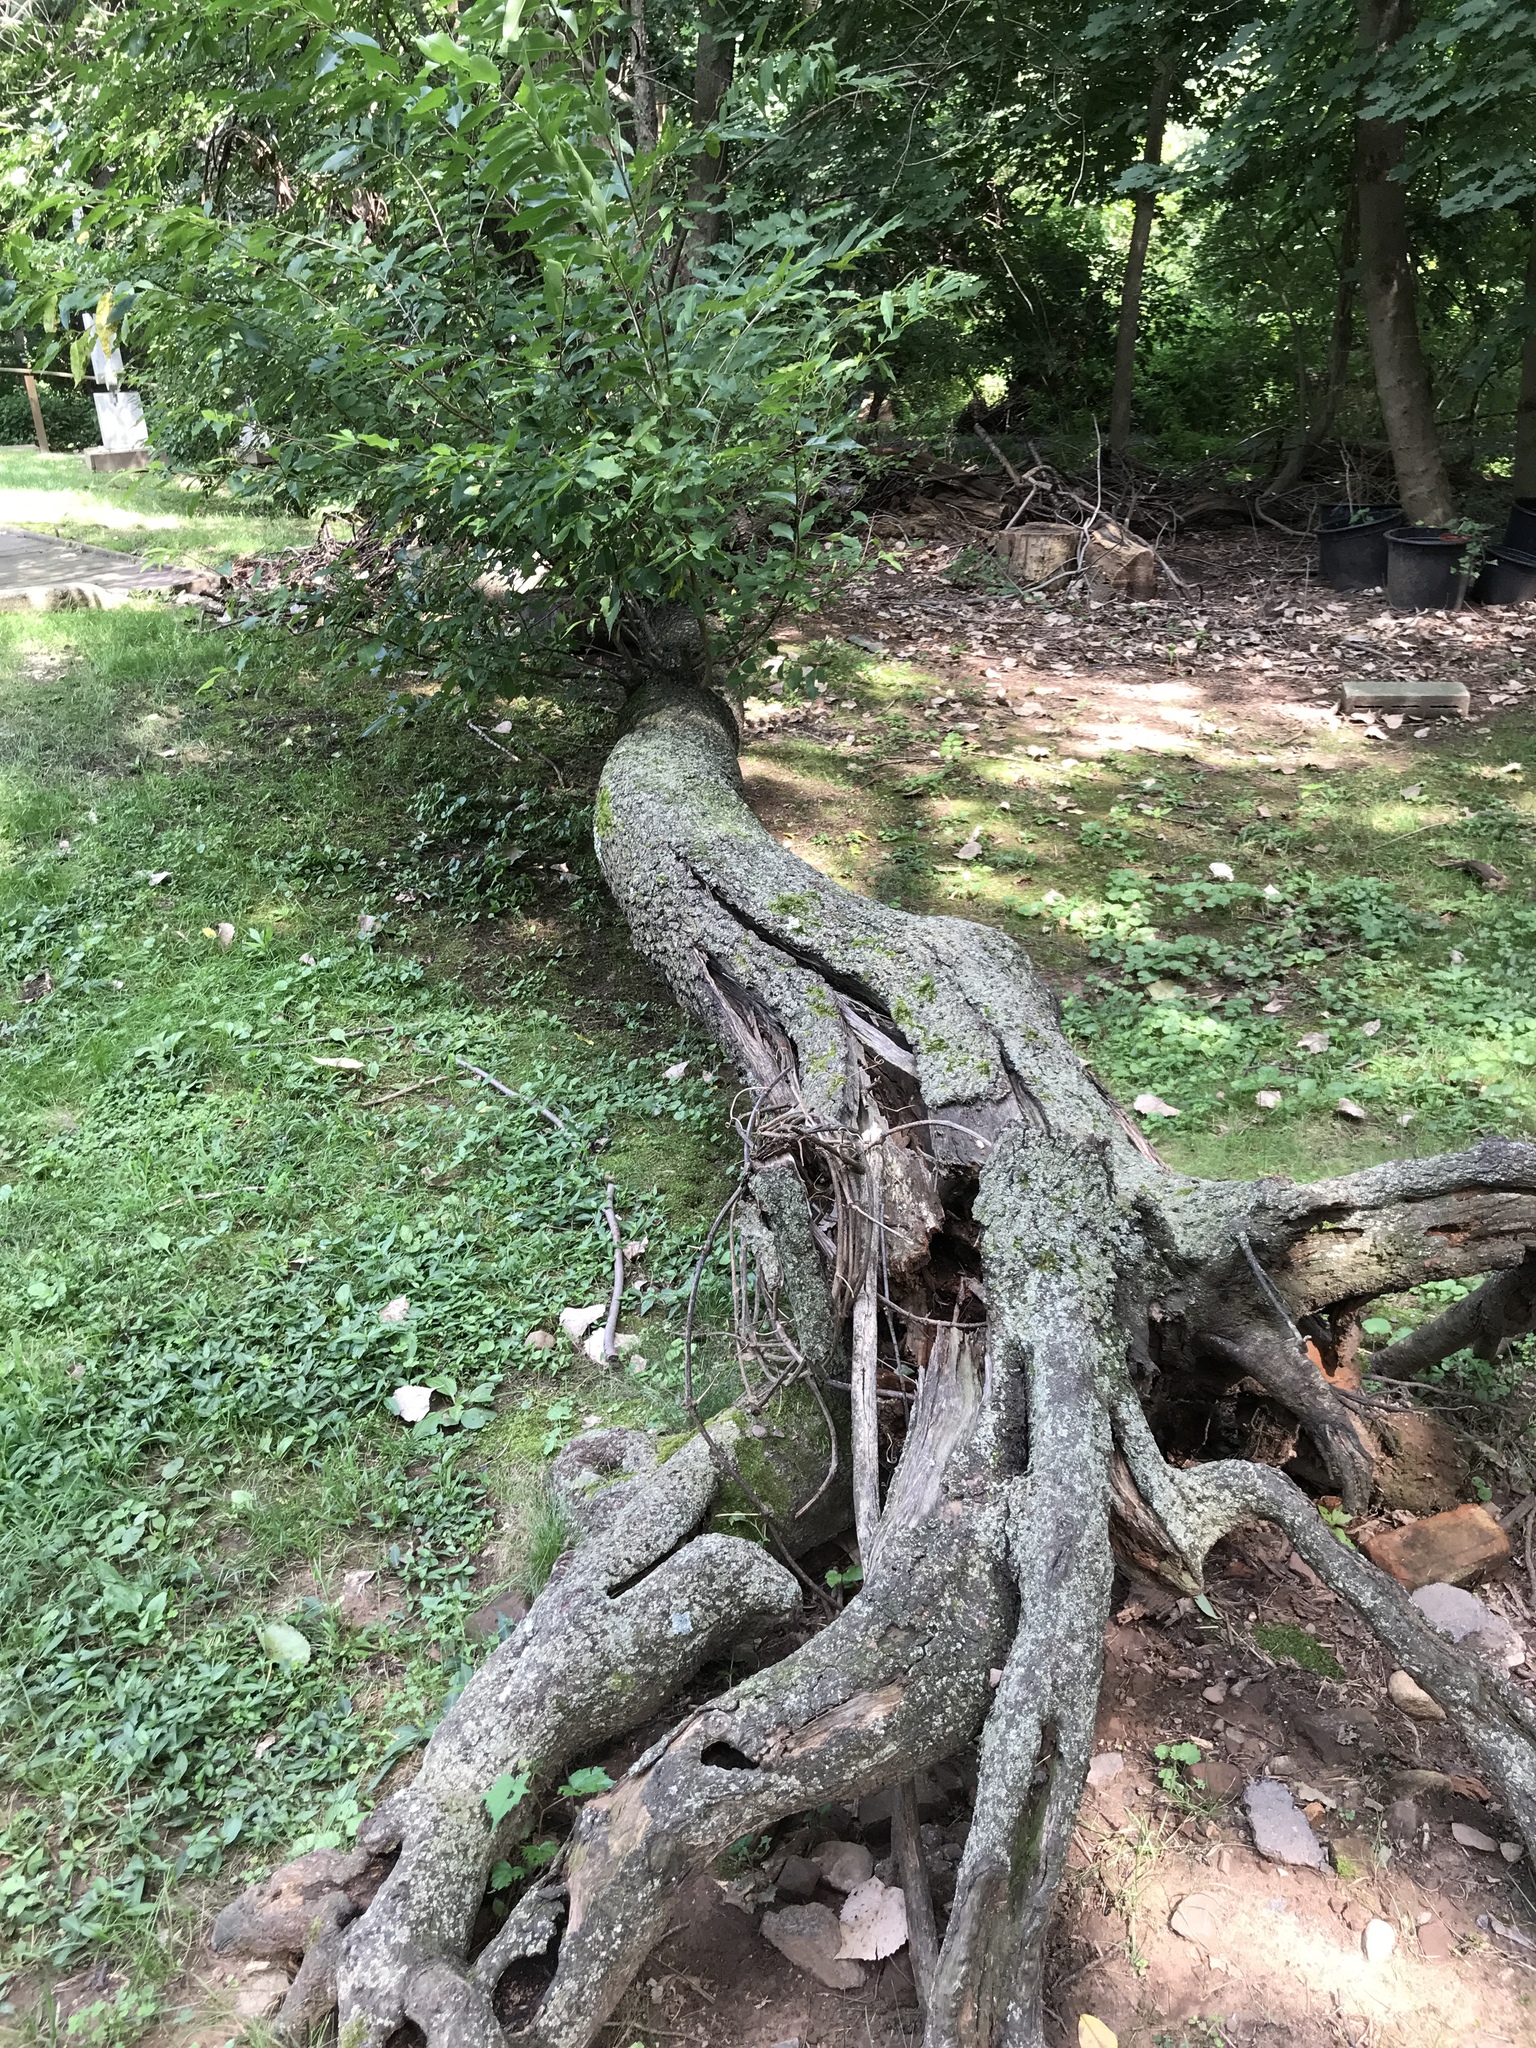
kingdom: Plantae
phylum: Tracheophyta
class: Magnoliopsida
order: Rosales
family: Rosaceae
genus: Prunus
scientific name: Prunus serotina
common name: Black cherry
